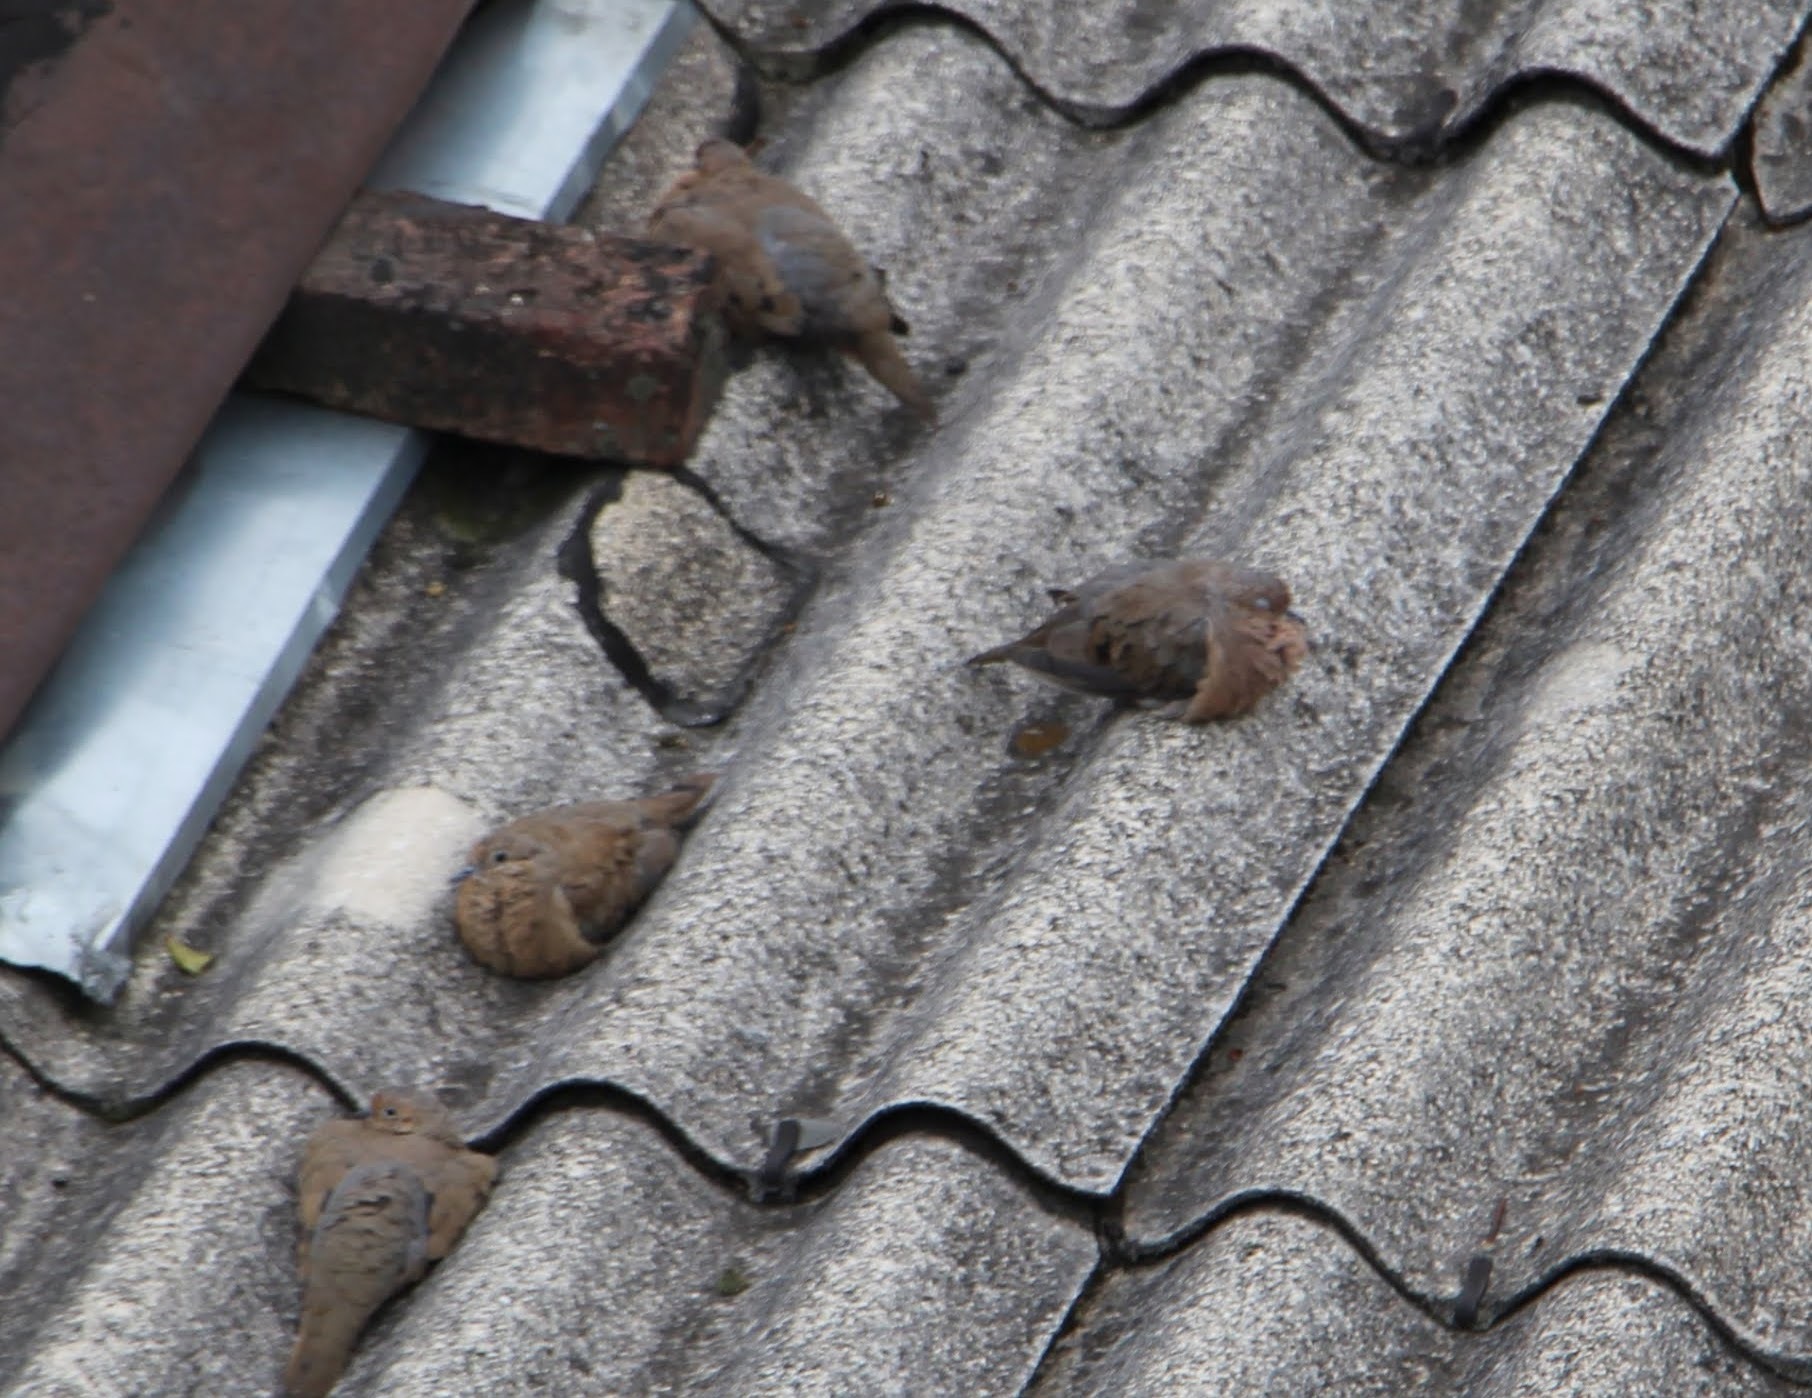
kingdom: Animalia
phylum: Chordata
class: Aves
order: Columbiformes
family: Columbidae
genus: Zenaida
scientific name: Zenaida auriculata
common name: Eared dove
